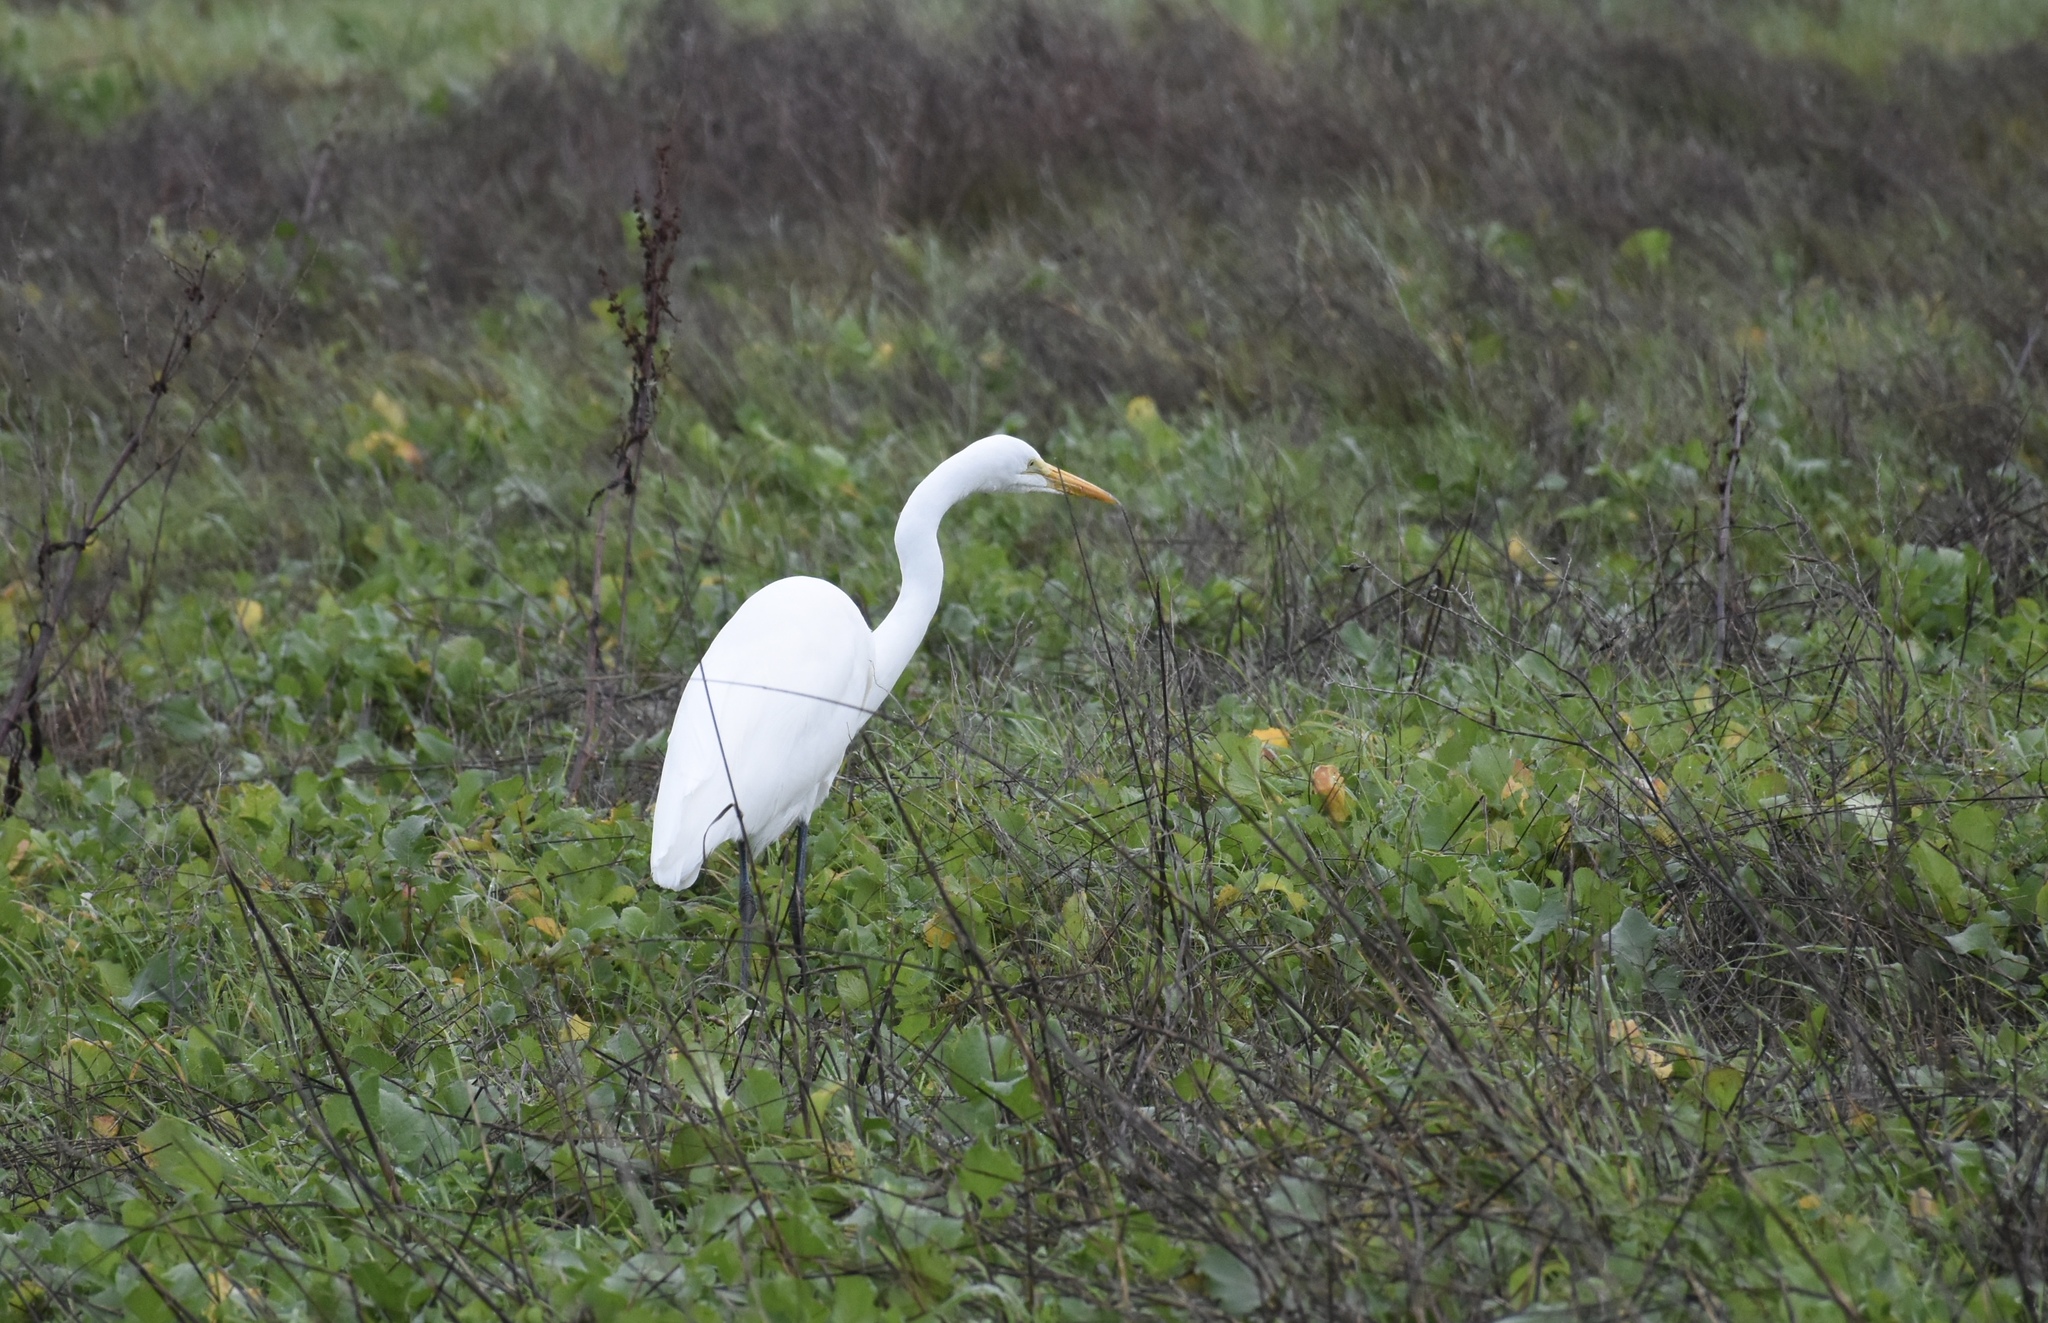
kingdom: Animalia
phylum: Chordata
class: Aves
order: Pelecaniformes
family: Ardeidae
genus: Ardea
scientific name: Ardea alba
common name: Great egret
